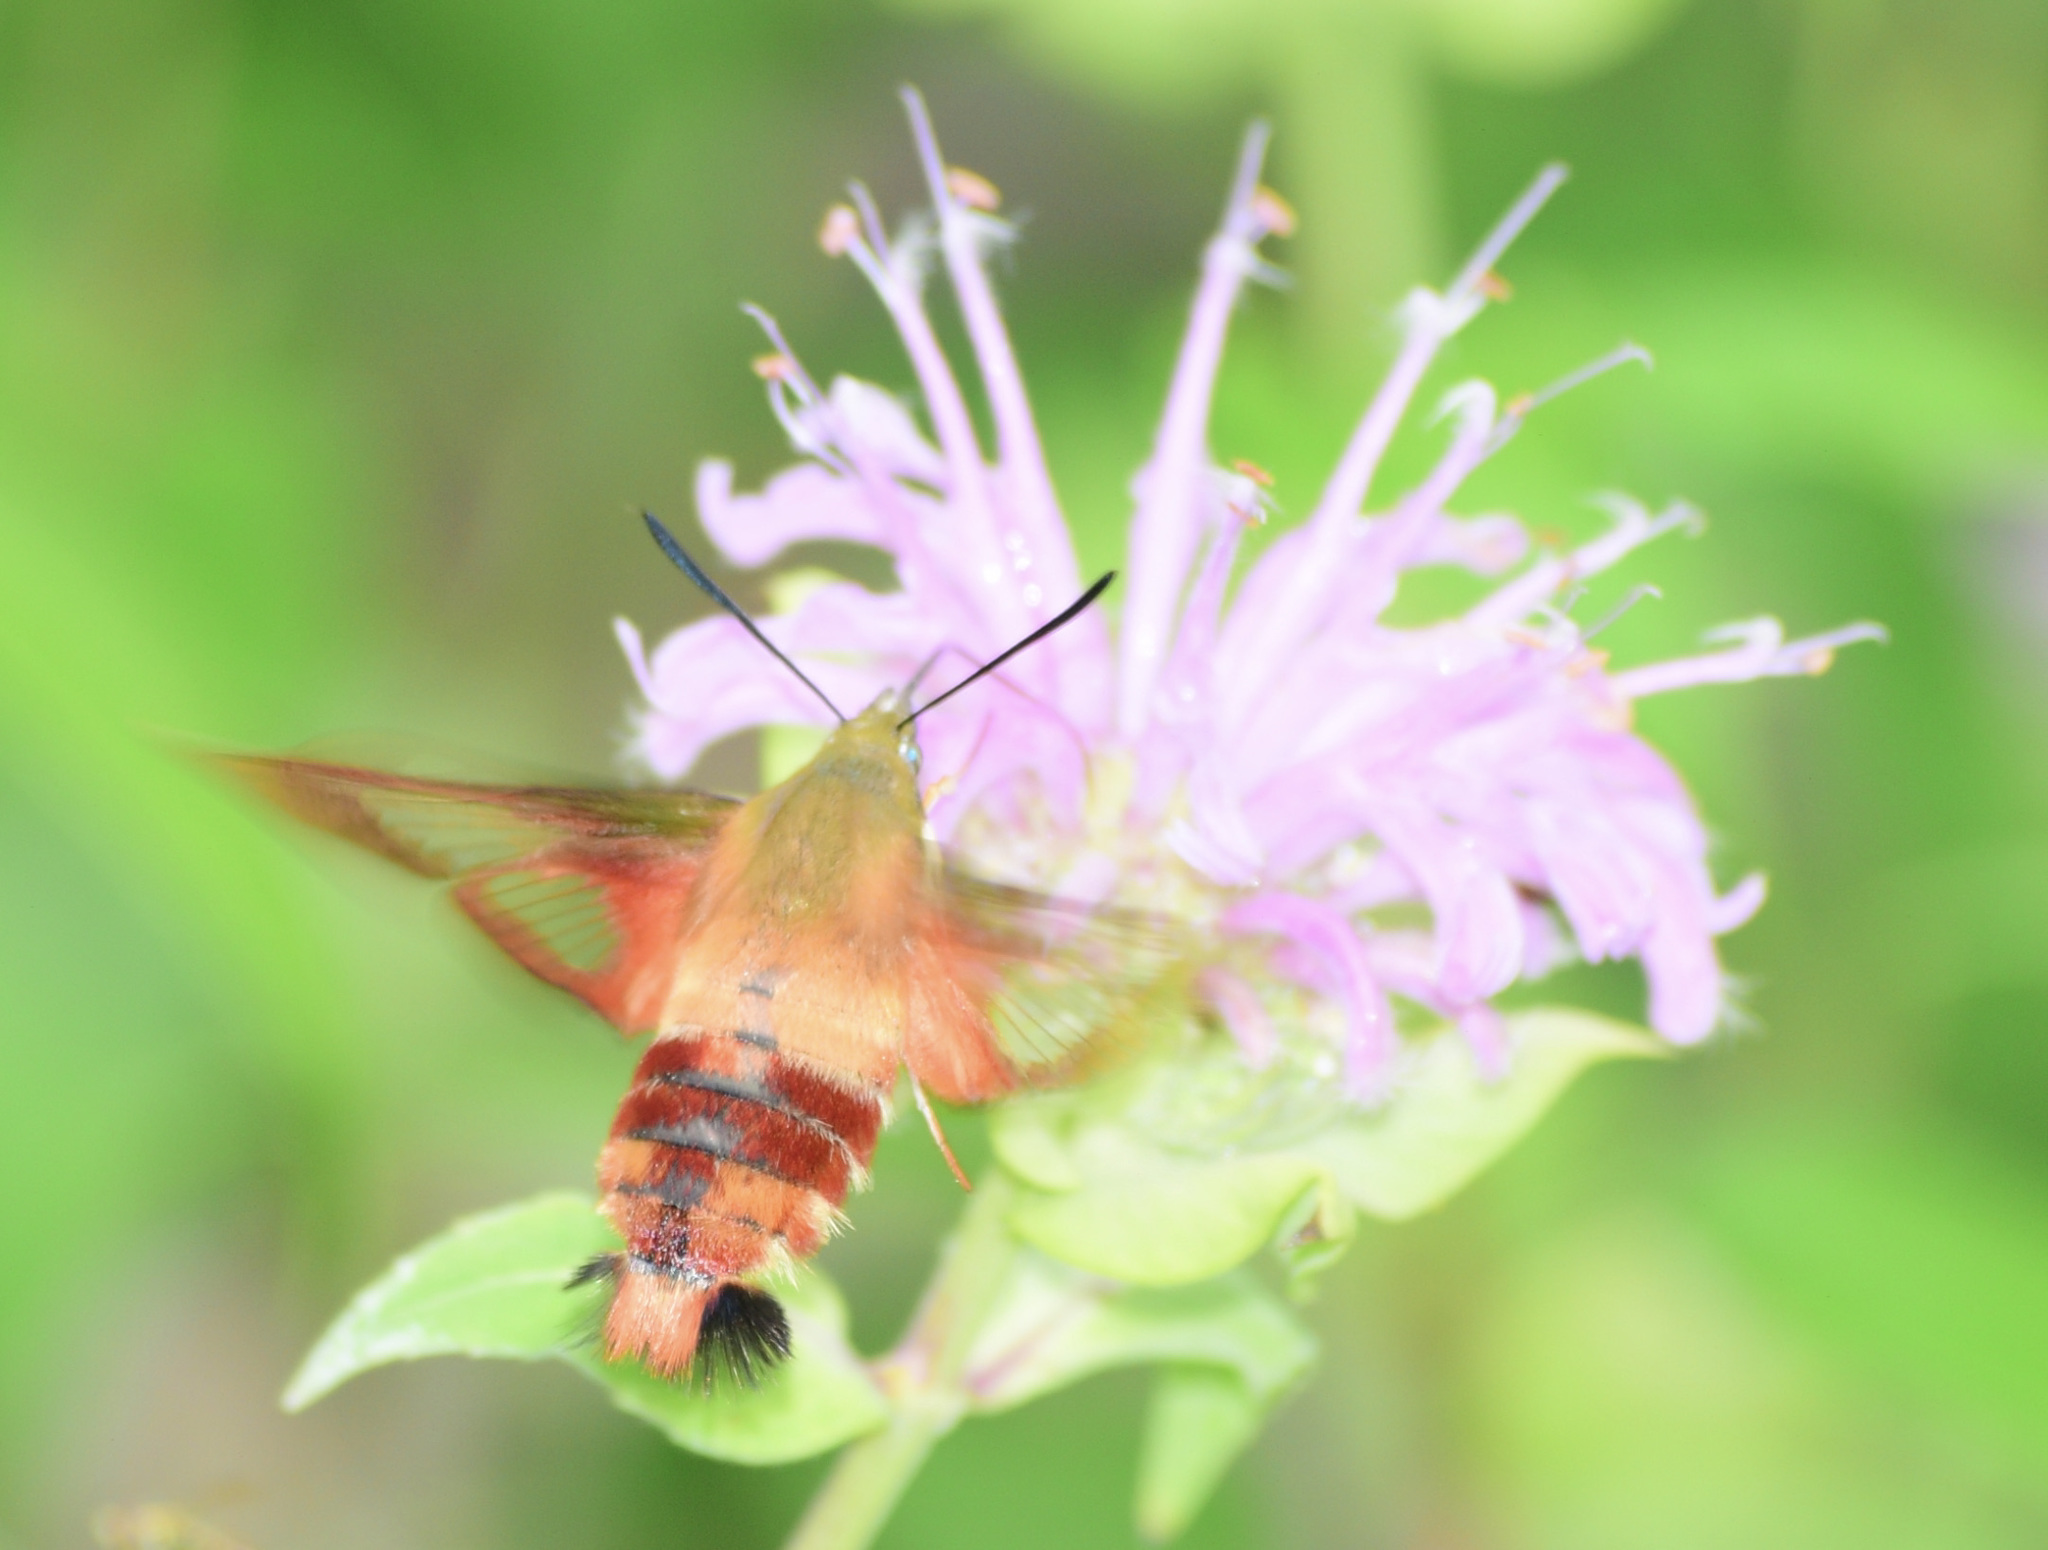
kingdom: Animalia
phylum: Arthropoda
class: Insecta
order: Lepidoptera
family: Sphingidae
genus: Hemaris
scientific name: Hemaris thysbe
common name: Common clear-wing
